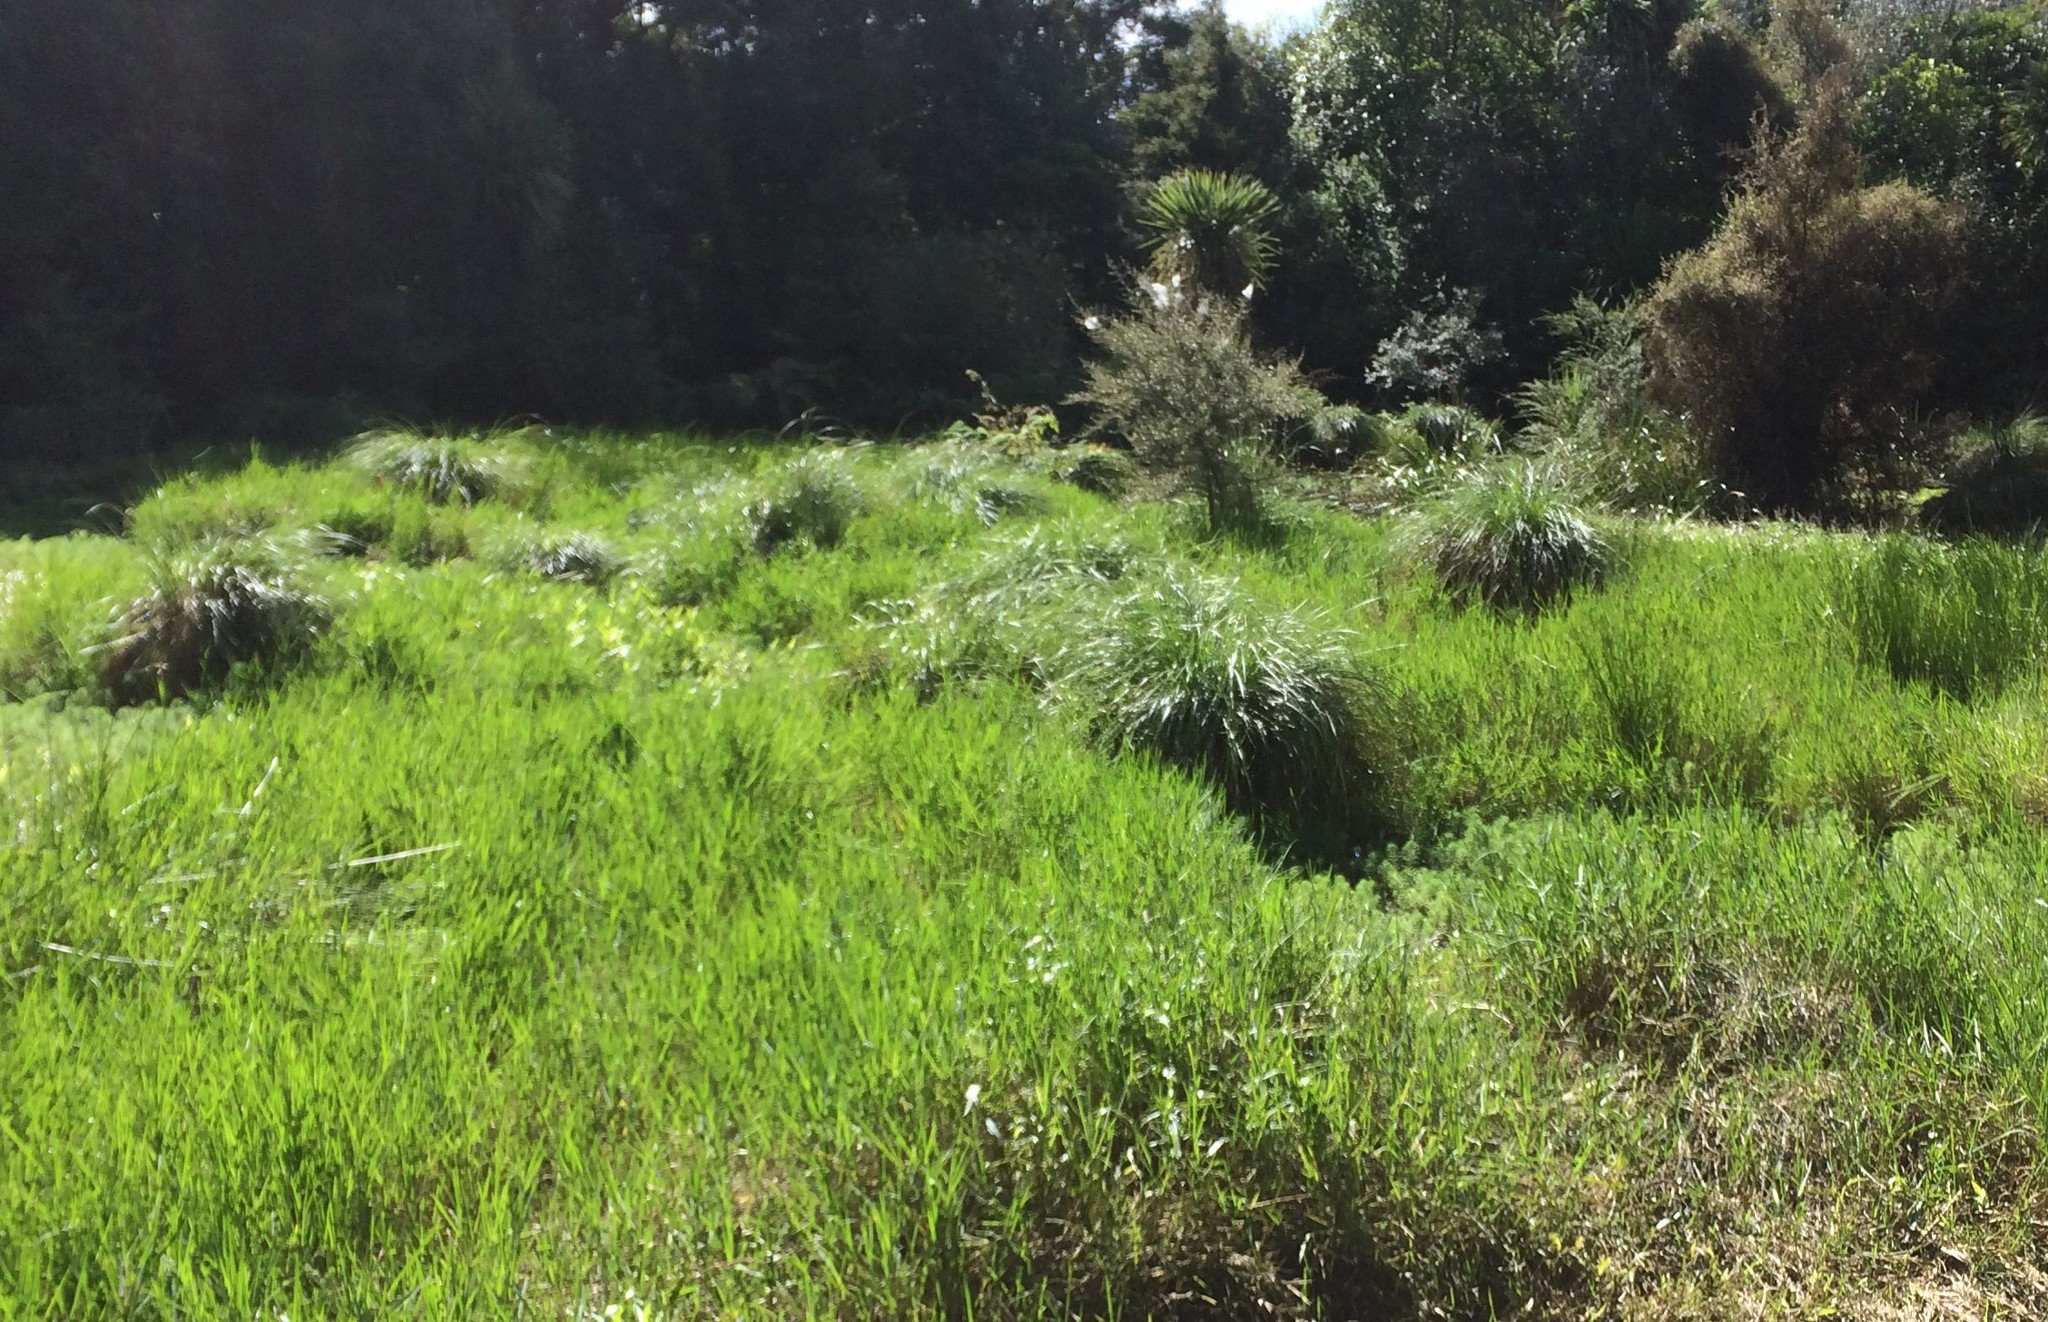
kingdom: Plantae
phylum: Tracheophyta
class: Liliopsida
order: Poales
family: Poaceae
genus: Paspalum
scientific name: Paspalum distichum
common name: Knotgrass
